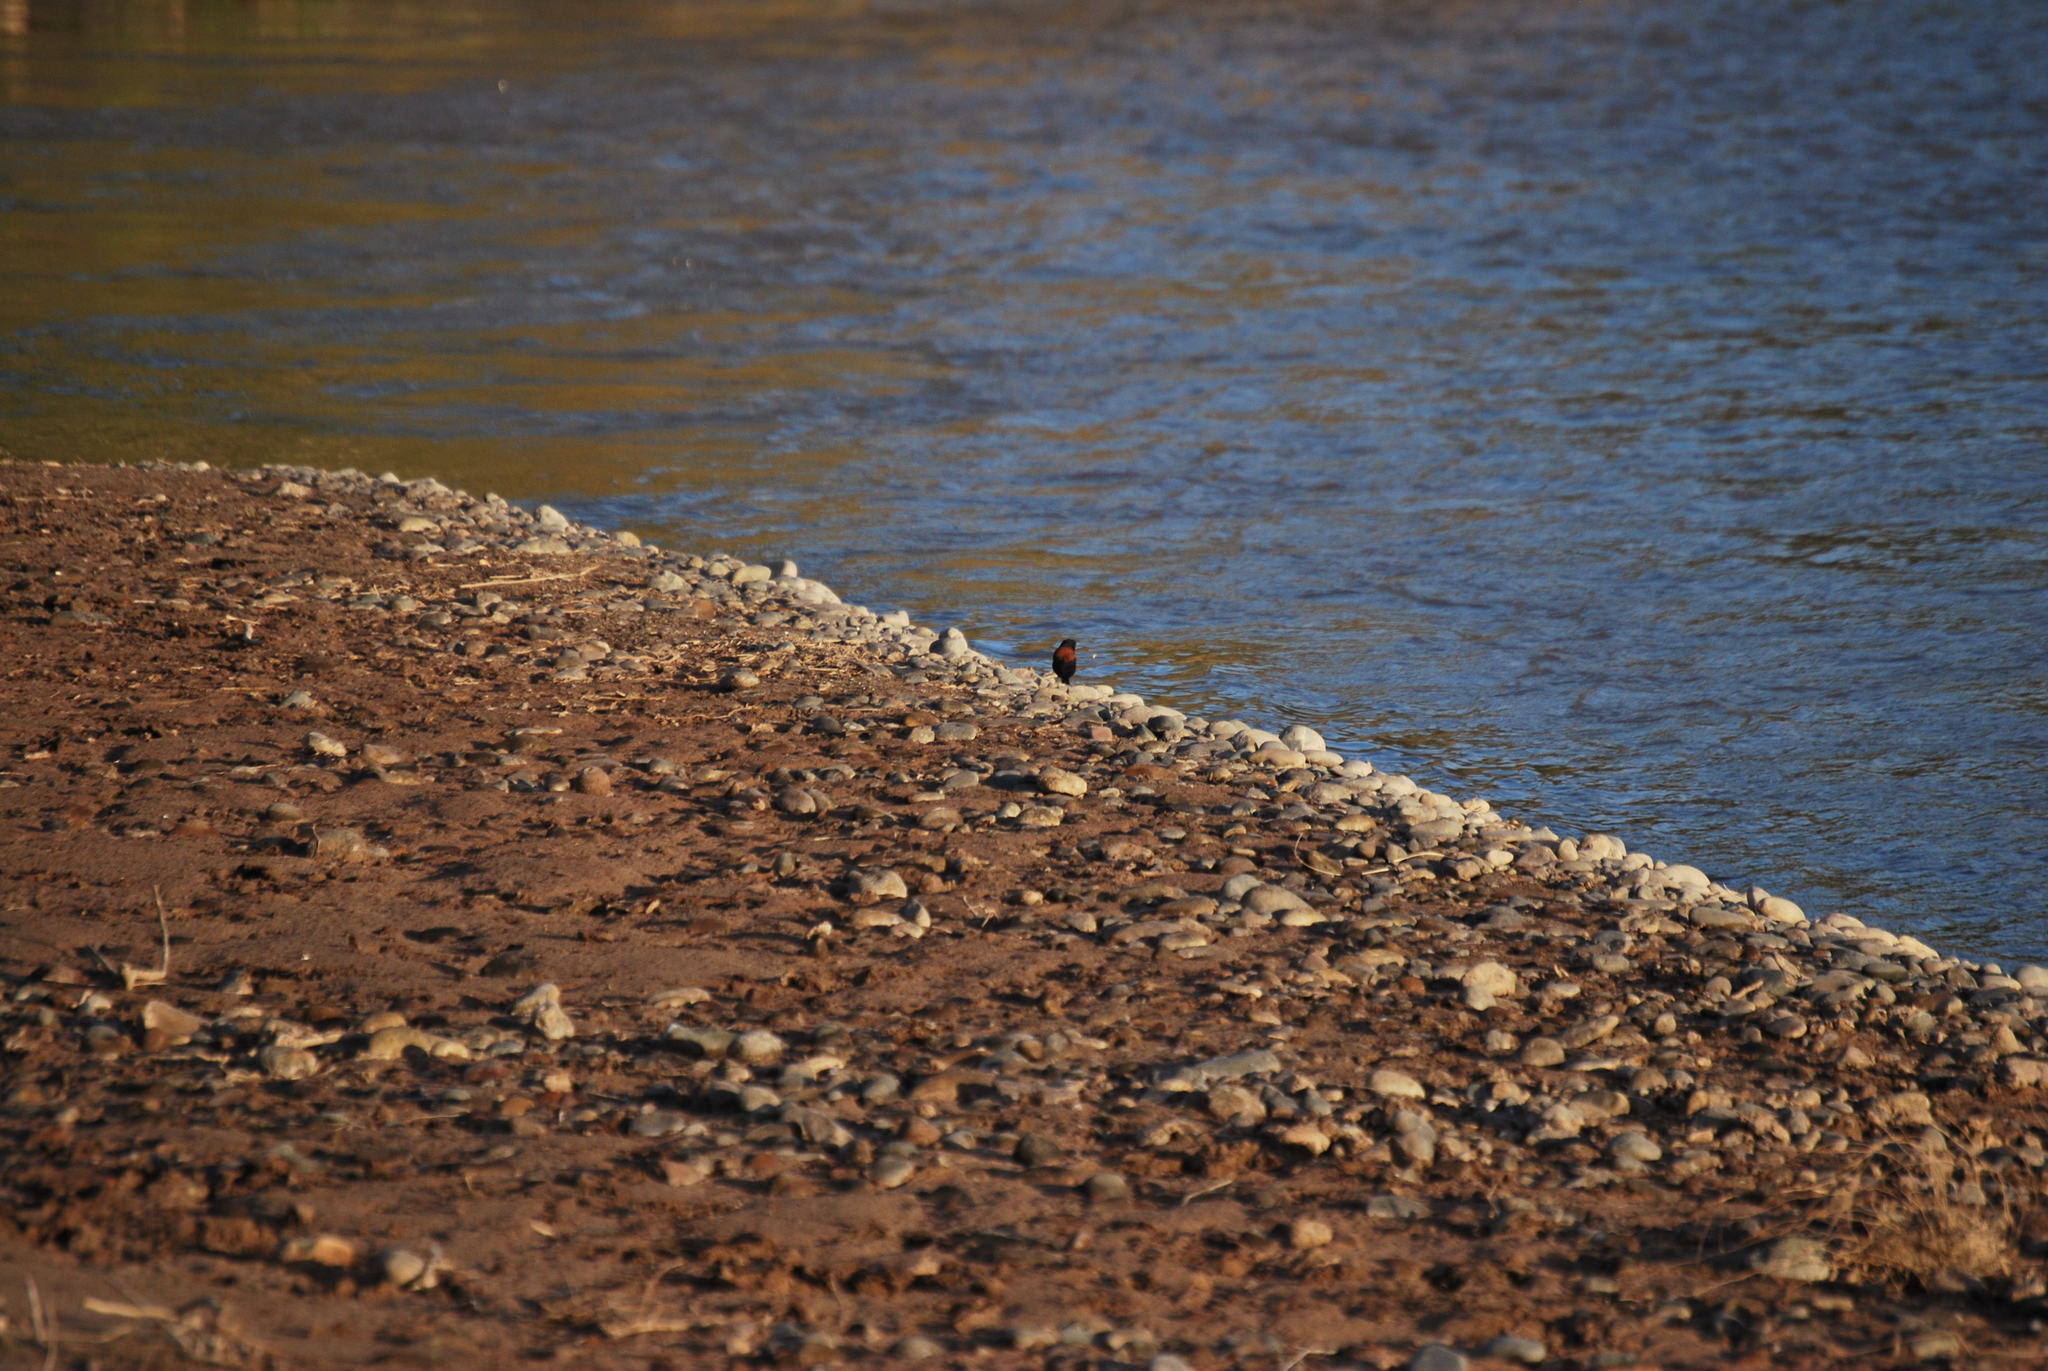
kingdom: Animalia
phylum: Chordata
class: Aves
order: Passeriformes
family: Tyrannidae
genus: Lessonia
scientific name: Lessonia rufa
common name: Austral negrito
